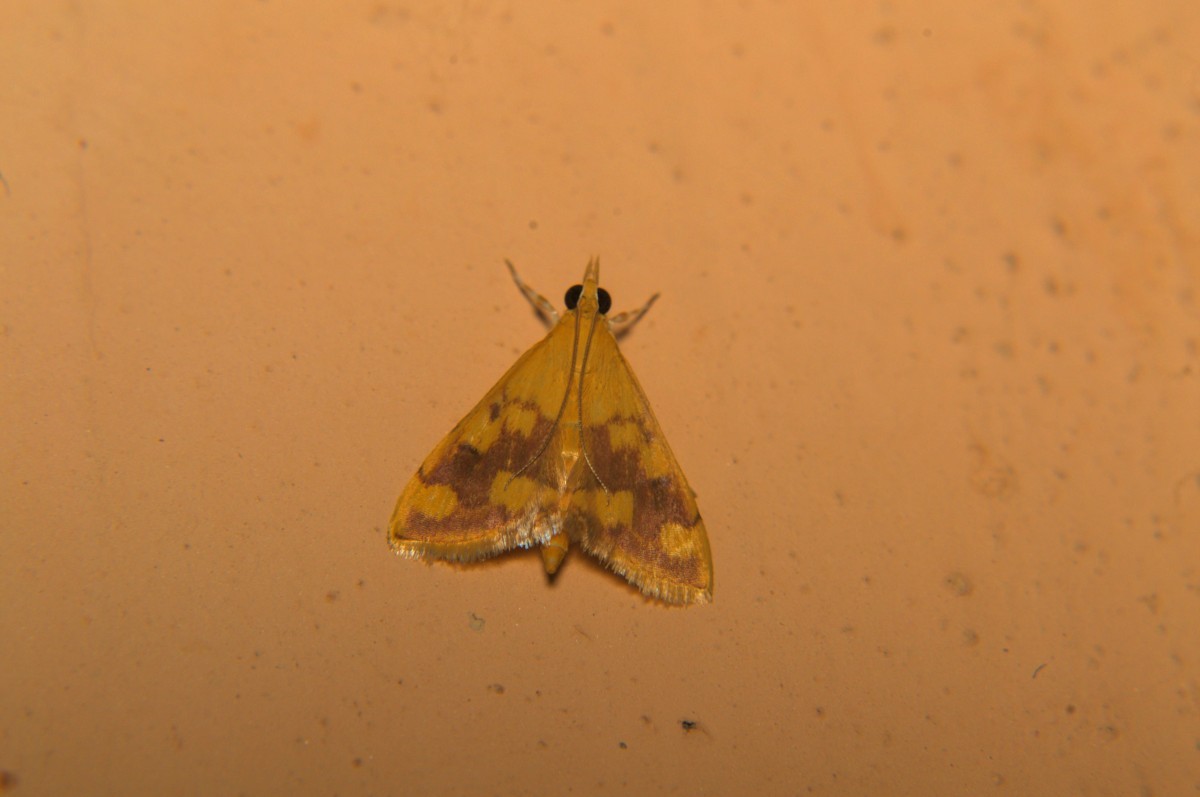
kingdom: Animalia
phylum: Arthropoda
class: Insecta
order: Lepidoptera
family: Crambidae
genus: Pyrausta
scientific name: Pyrausta phoenicealis
